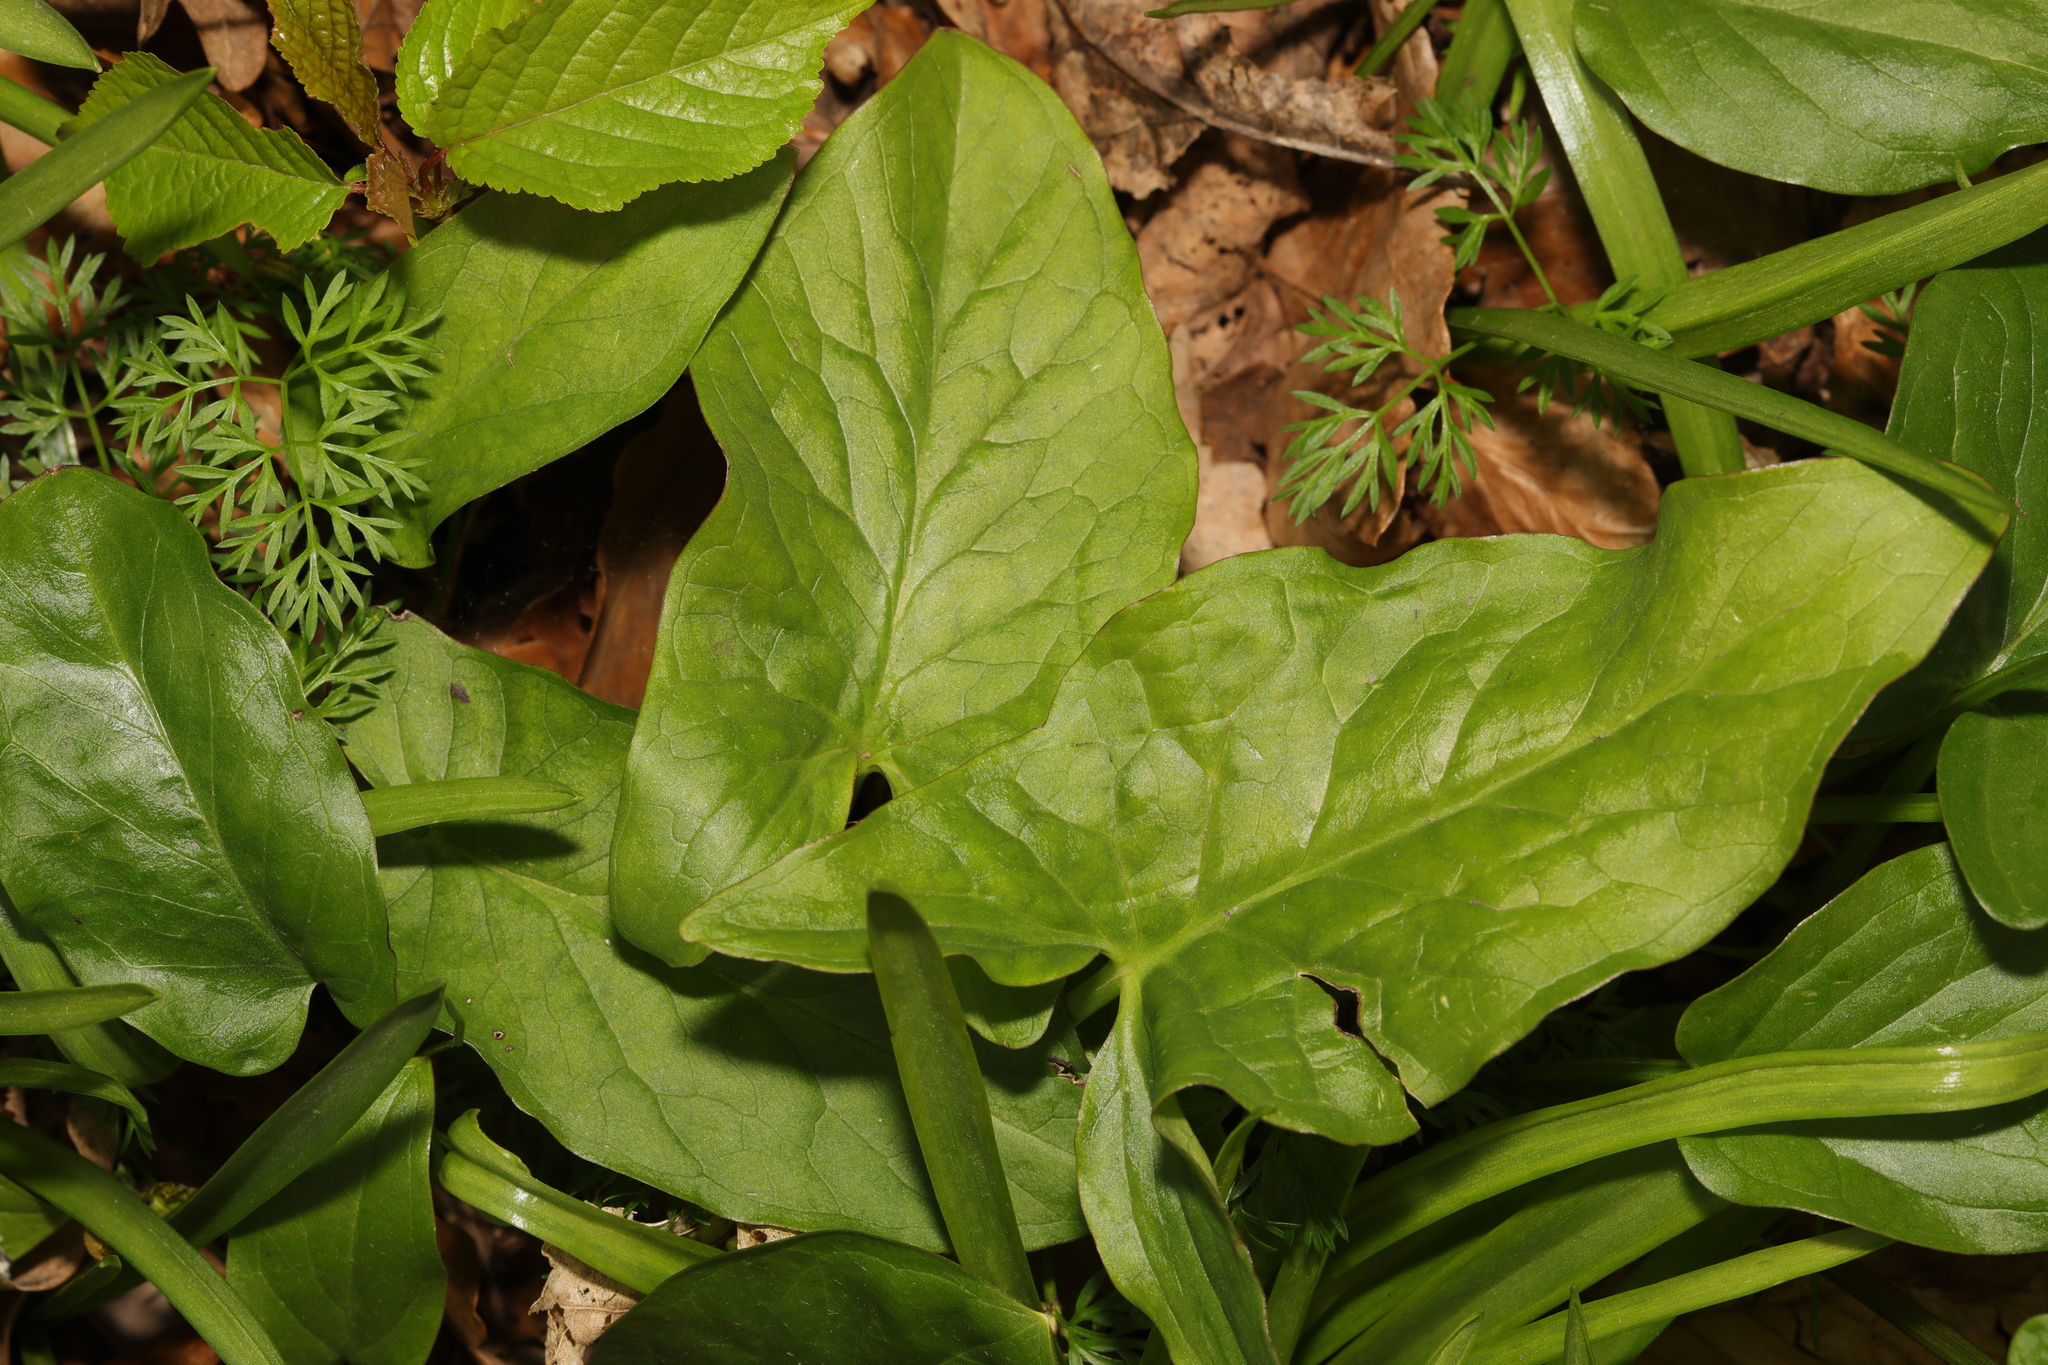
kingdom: Plantae
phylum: Tracheophyta
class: Liliopsida
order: Alismatales
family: Araceae
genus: Arum
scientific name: Arum maculatum
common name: Lords-and-ladies
